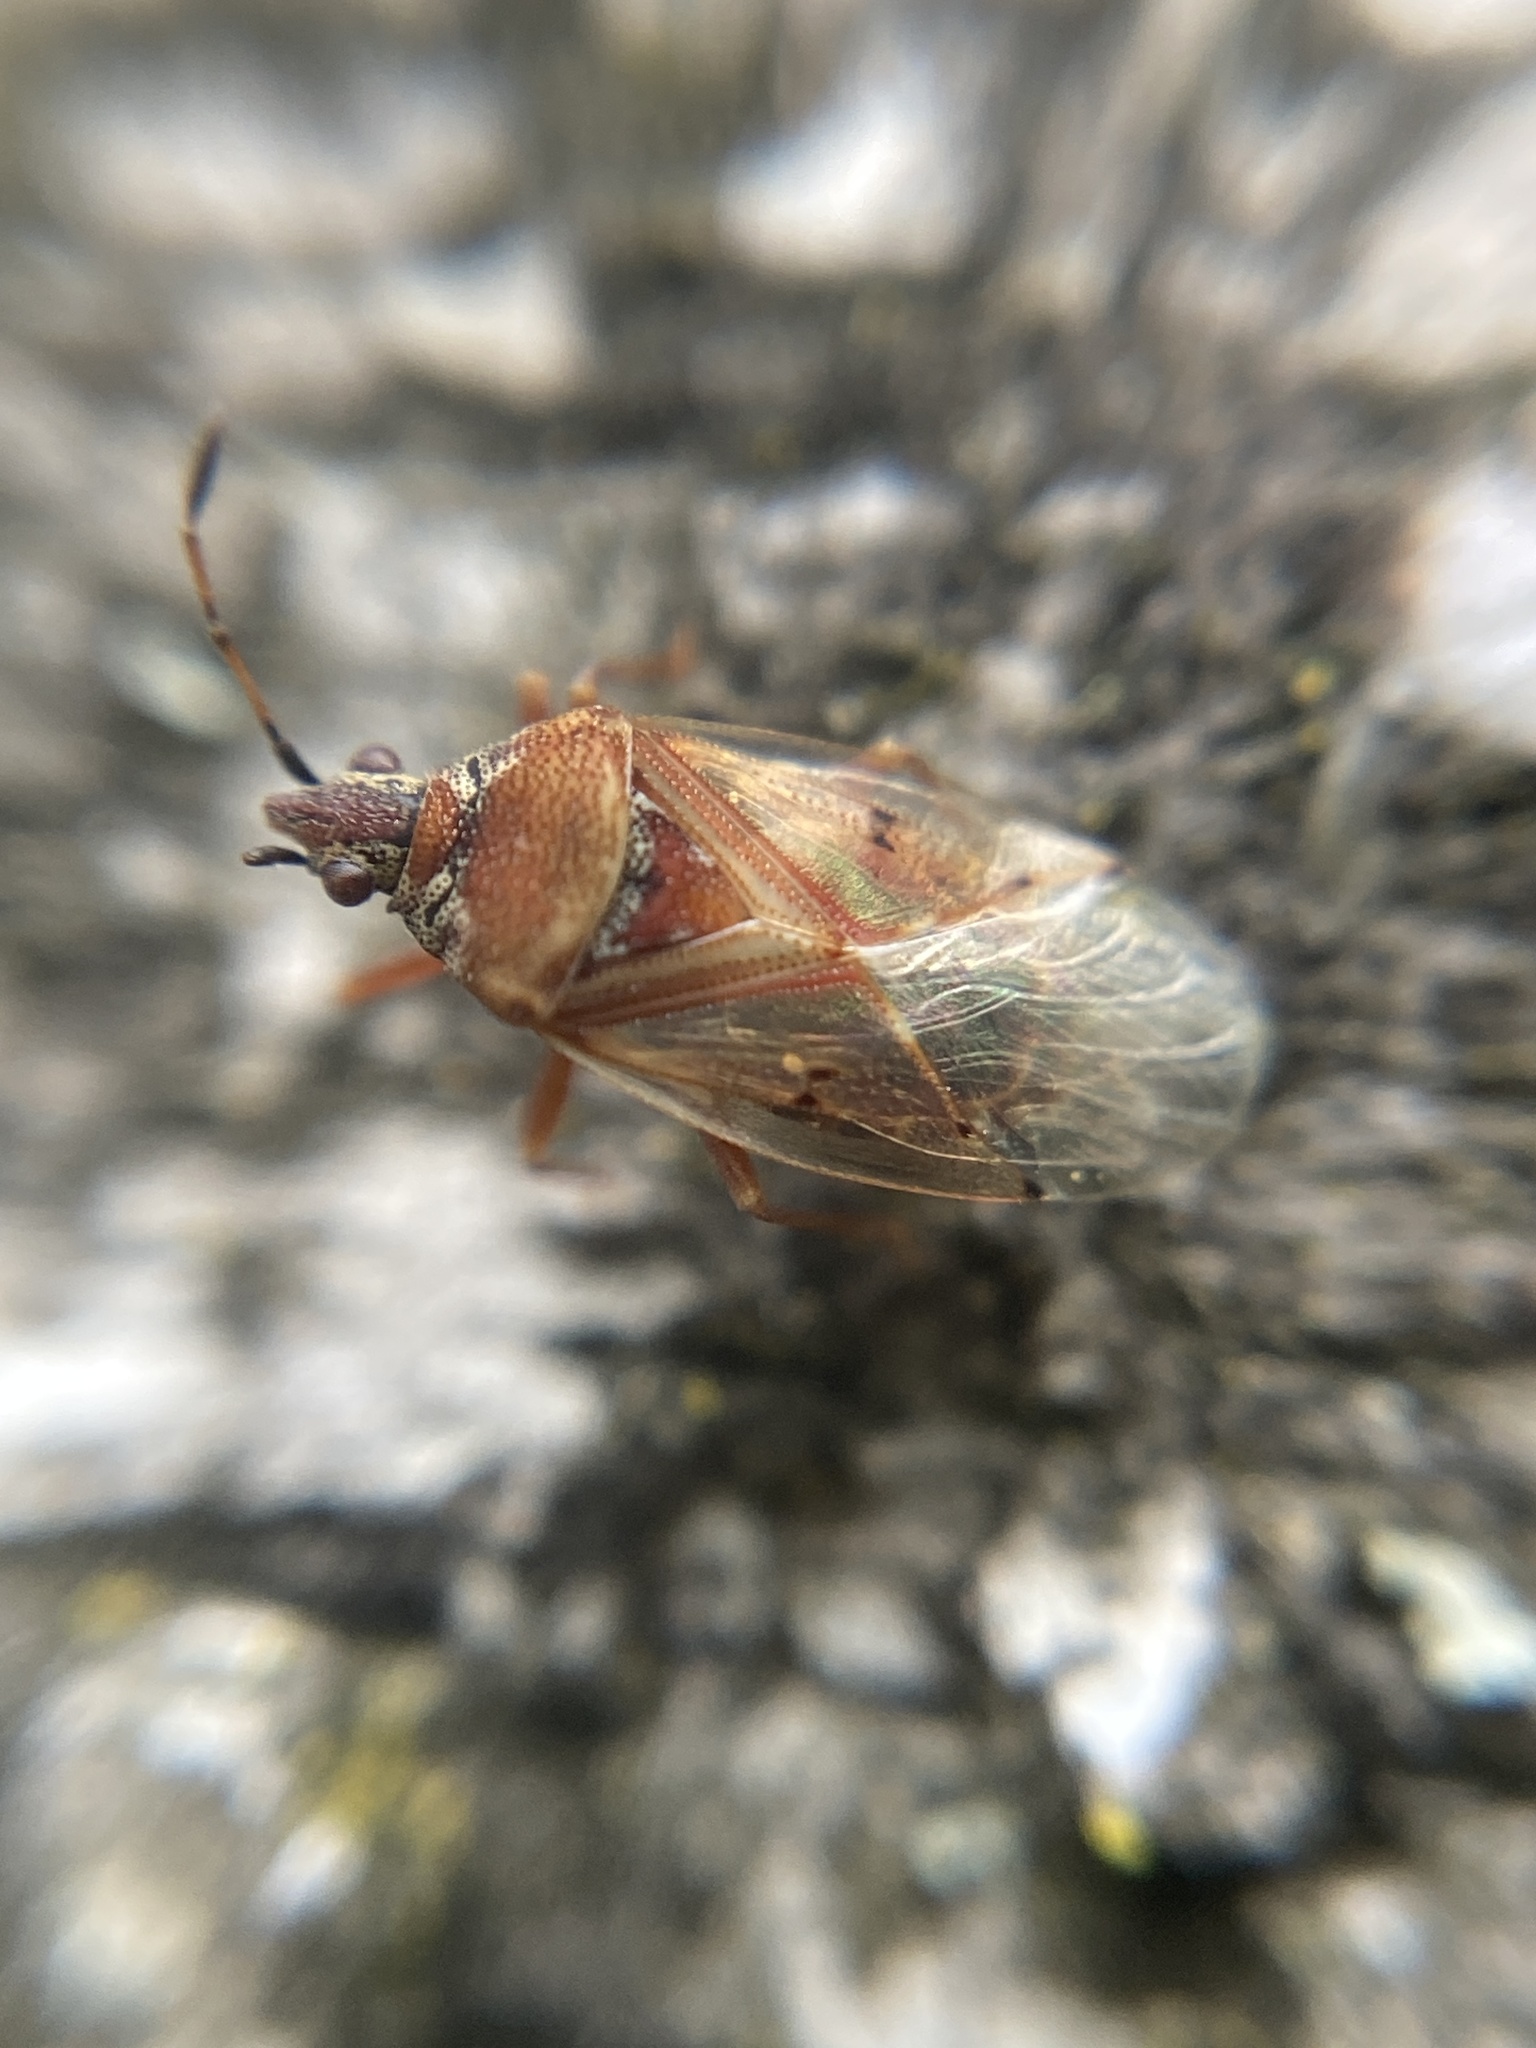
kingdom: Animalia
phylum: Arthropoda
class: Insecta
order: Hemiptera
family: Lygaeidae
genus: Kleidocerys
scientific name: Kleidocerys resedae
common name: Birch catkin bug
